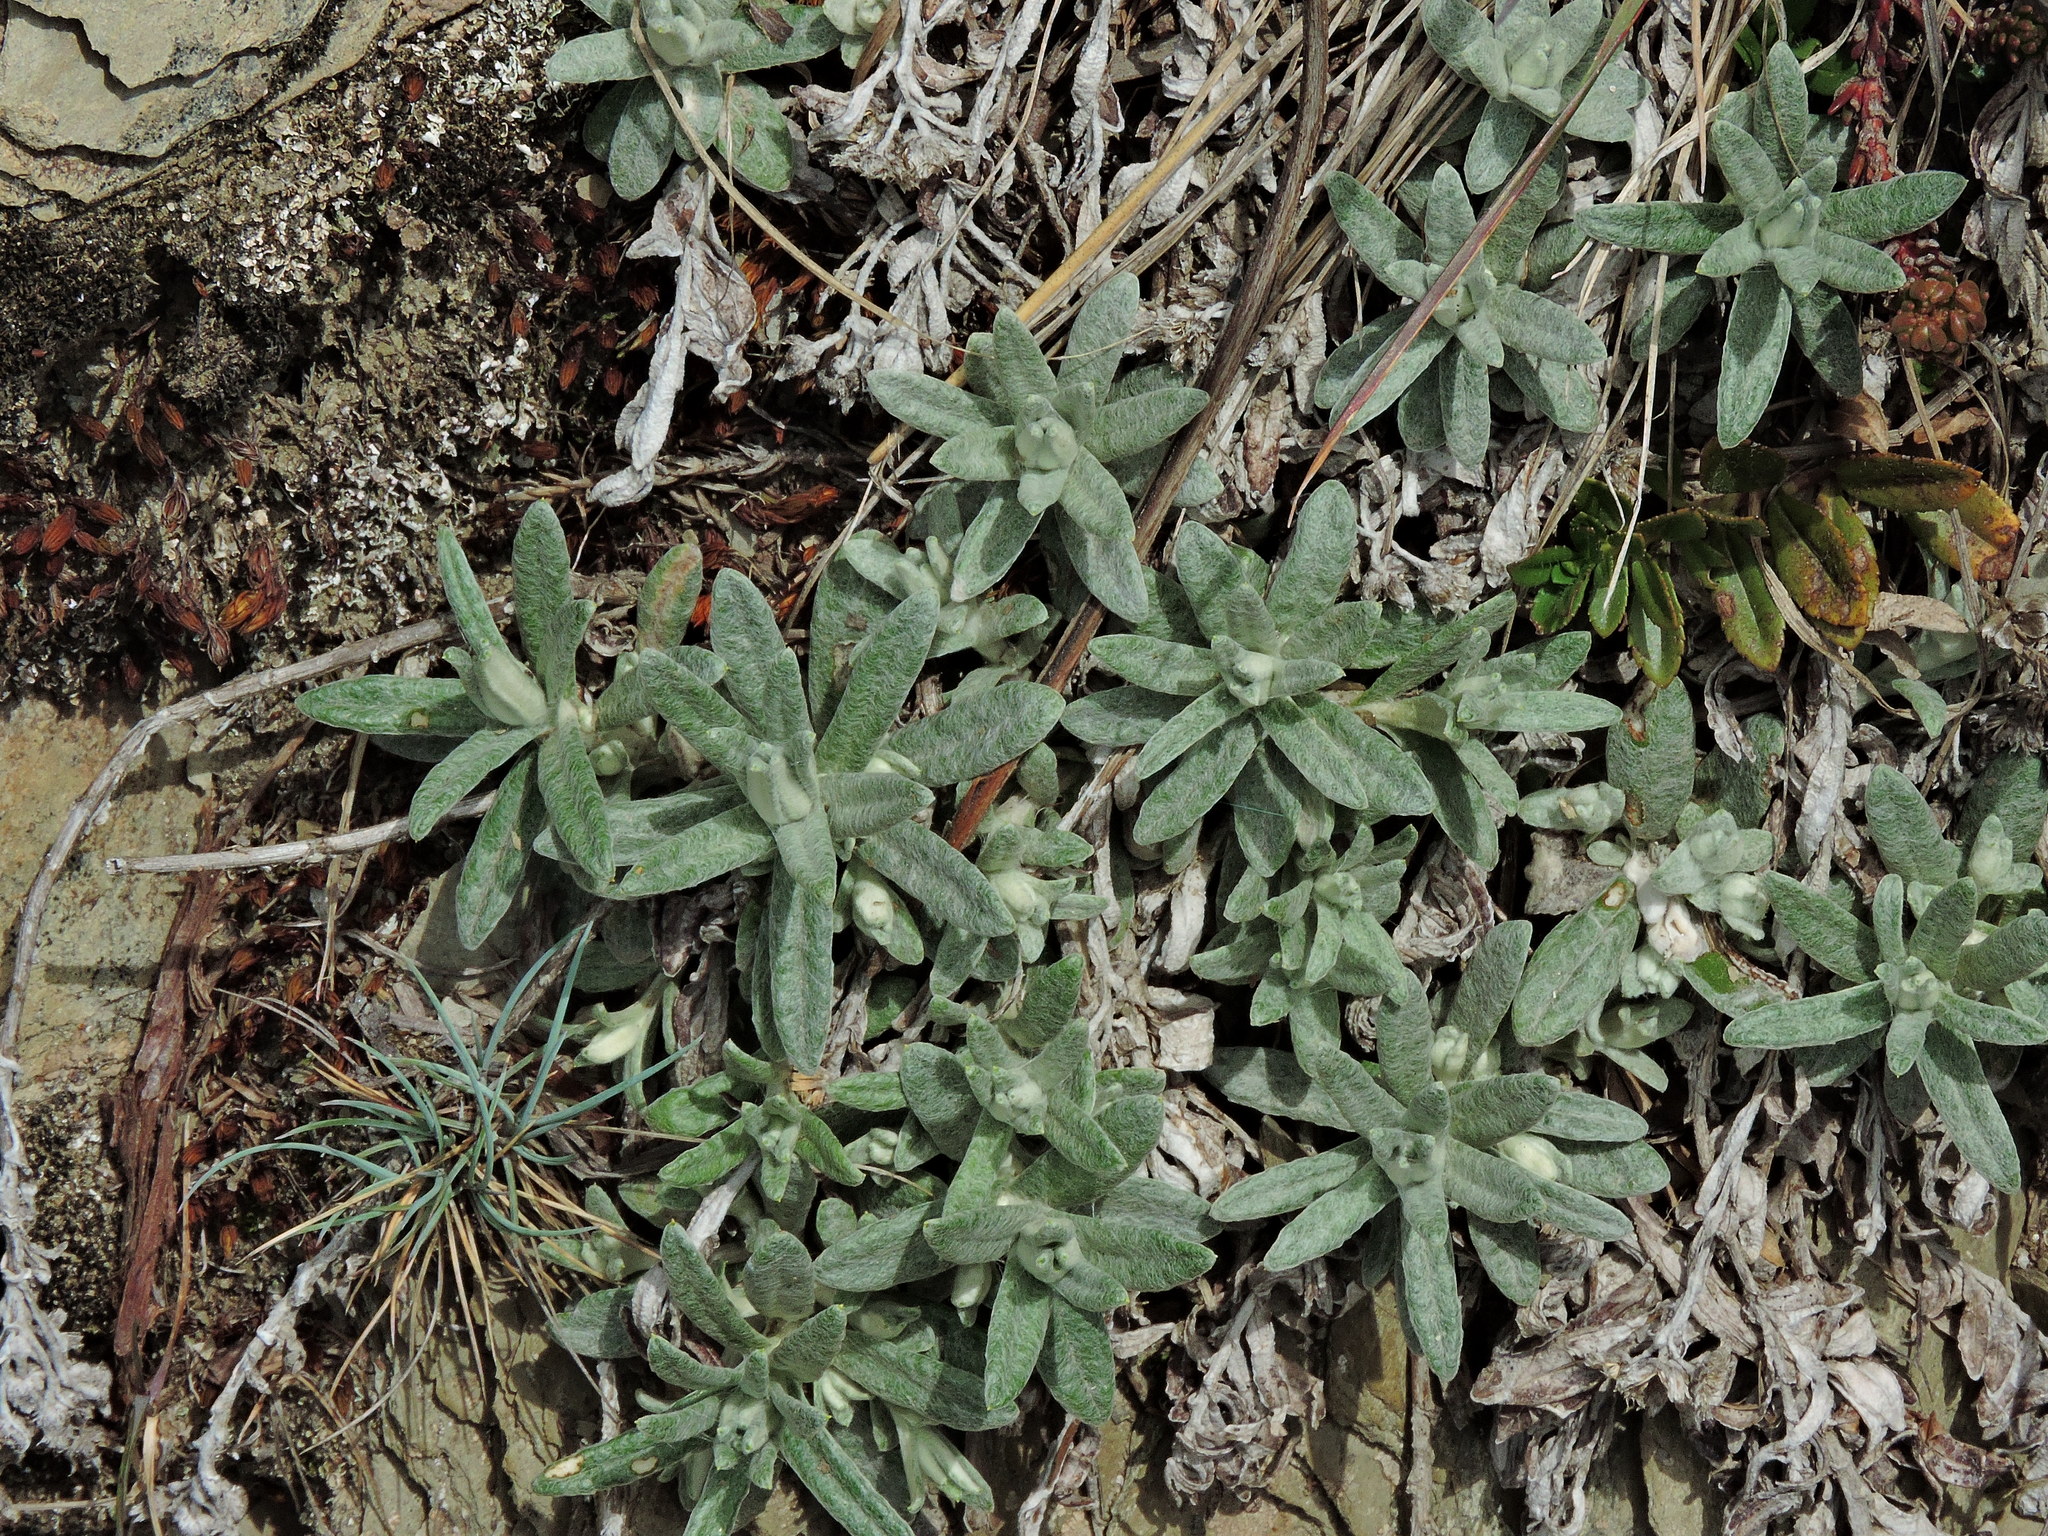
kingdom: Plantae
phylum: Tracheophyta
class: Magnoliopsida
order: Asterales
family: Asteraceae
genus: Anaphalis
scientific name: Anaphalis morrisonicola
